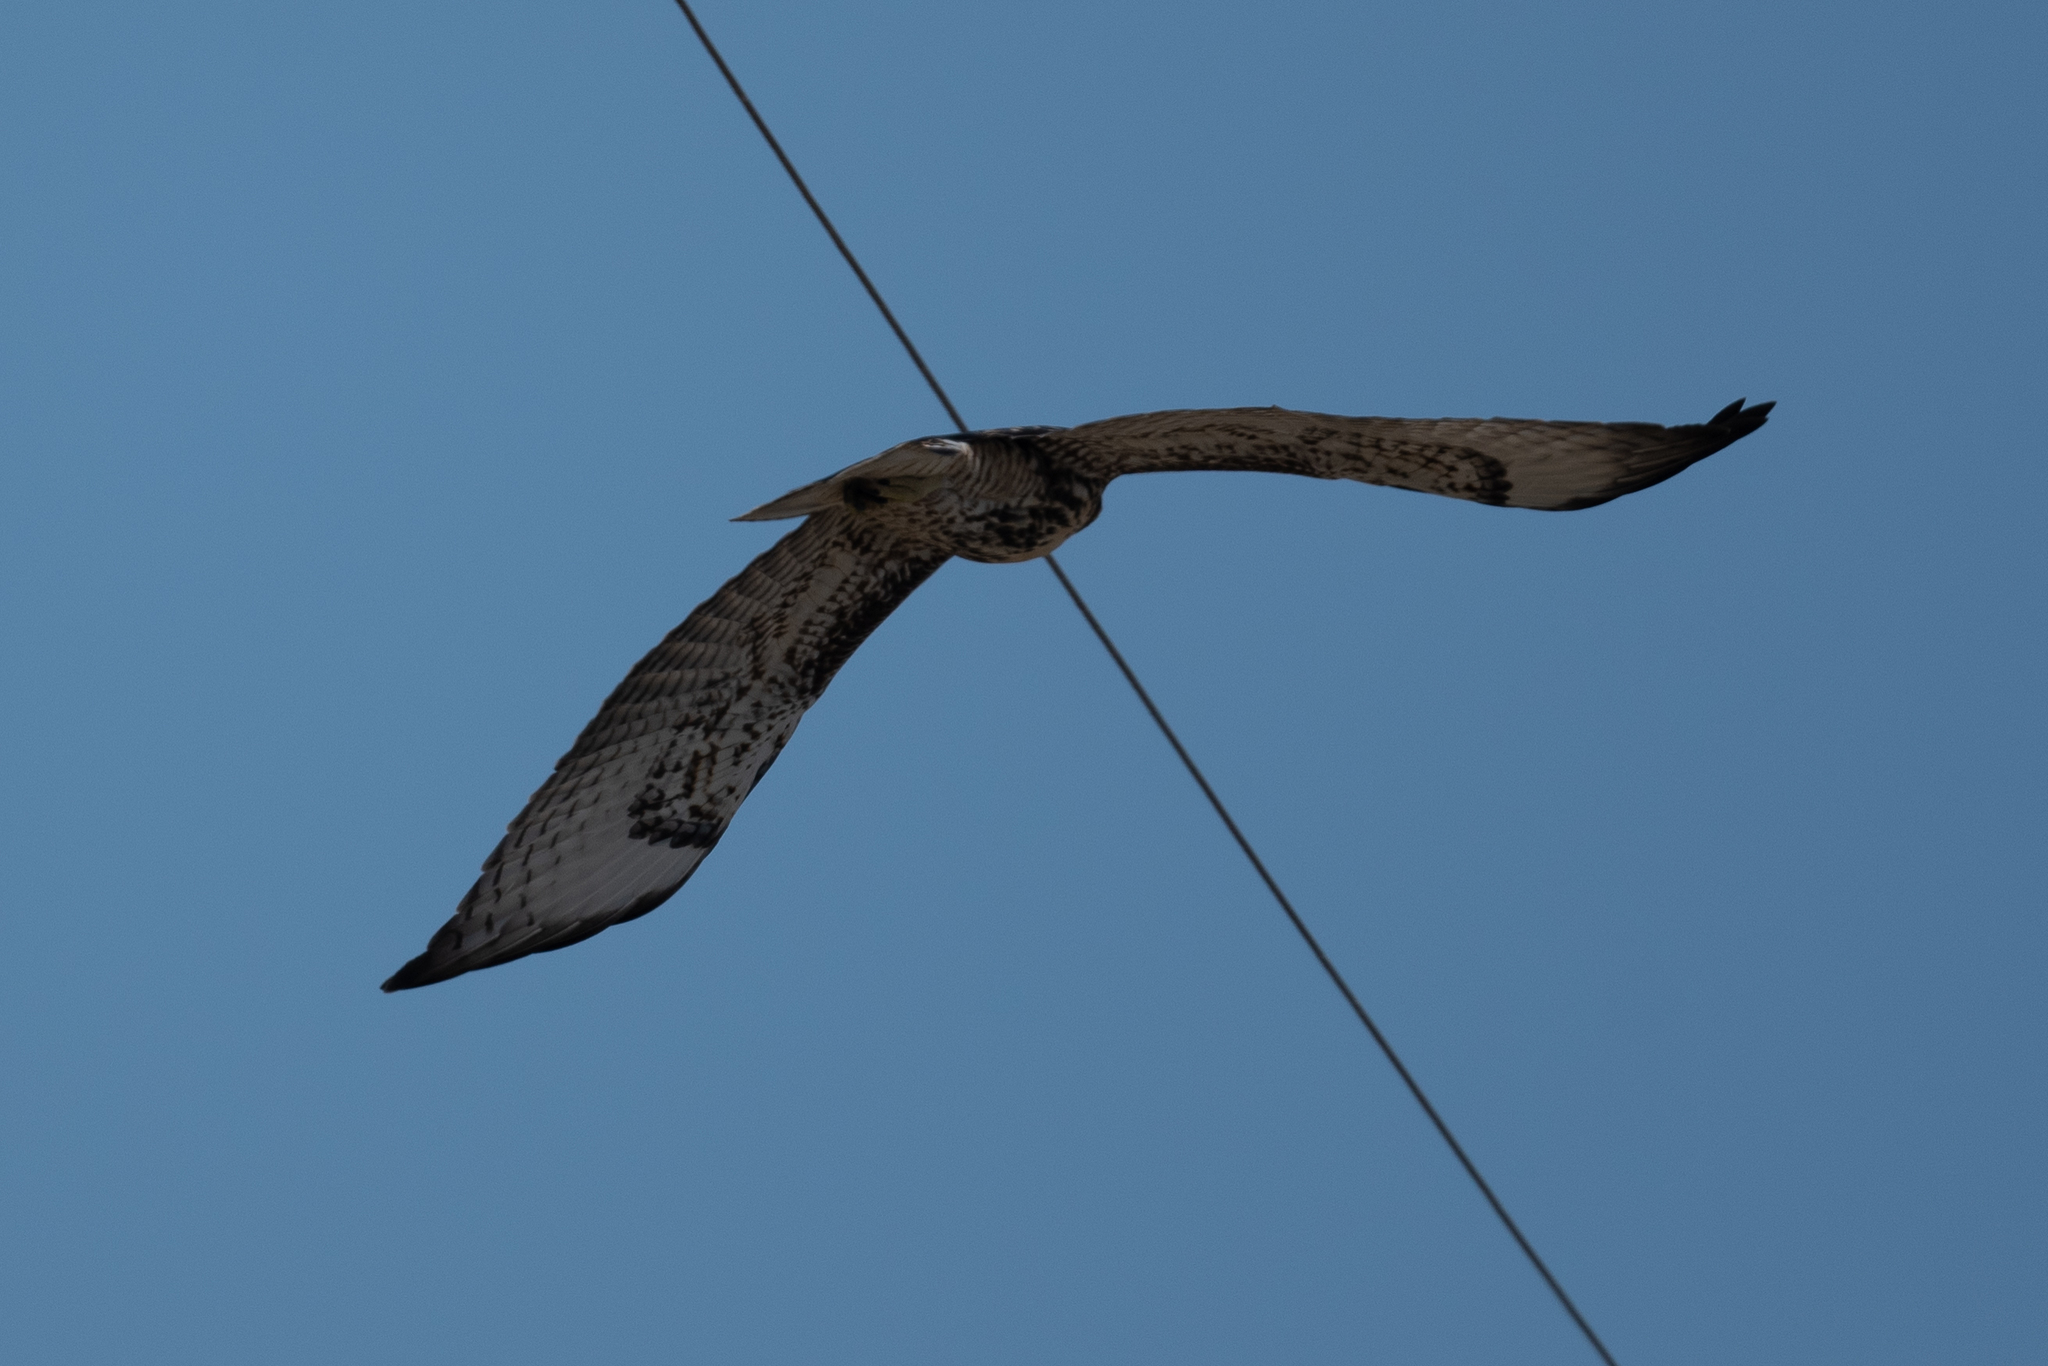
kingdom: Animalia
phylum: Chordata
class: Aves
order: Accipitriformes
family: Accipitridae
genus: Buteo
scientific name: Buteo jamaicensis
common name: Red-tailed hawk
